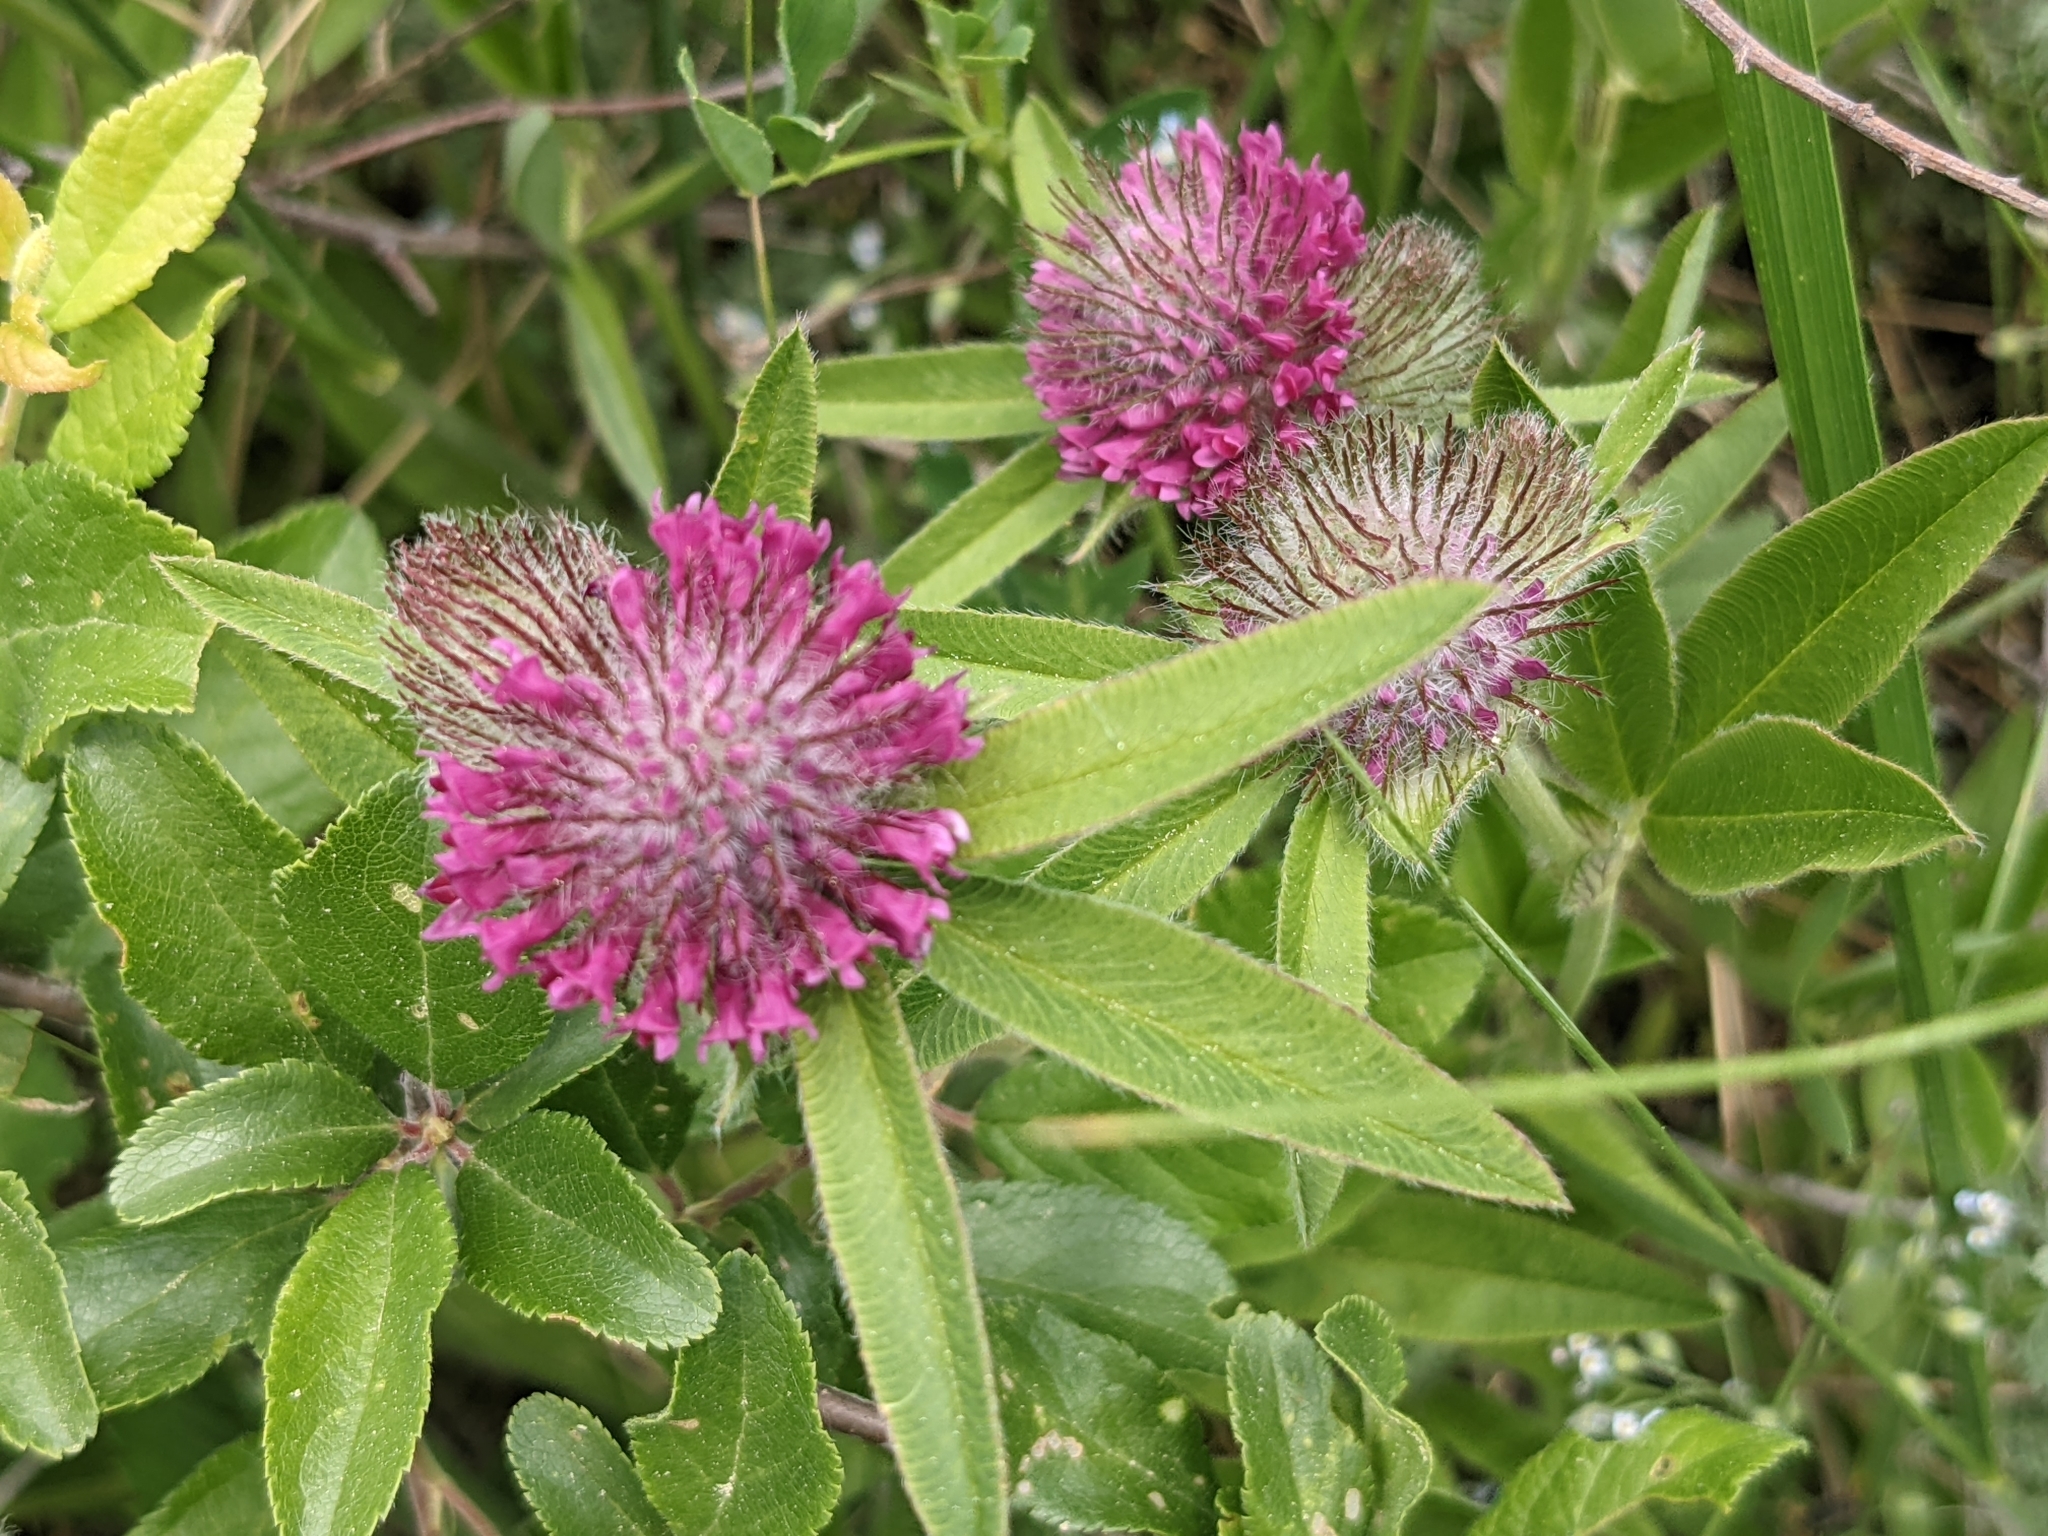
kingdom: Plantae
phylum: Tracheophyta
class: Magnoliopsida
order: Fabales
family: Fabaceae
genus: Trifolium
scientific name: Trifolium alpestre
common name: Owl-head clover
